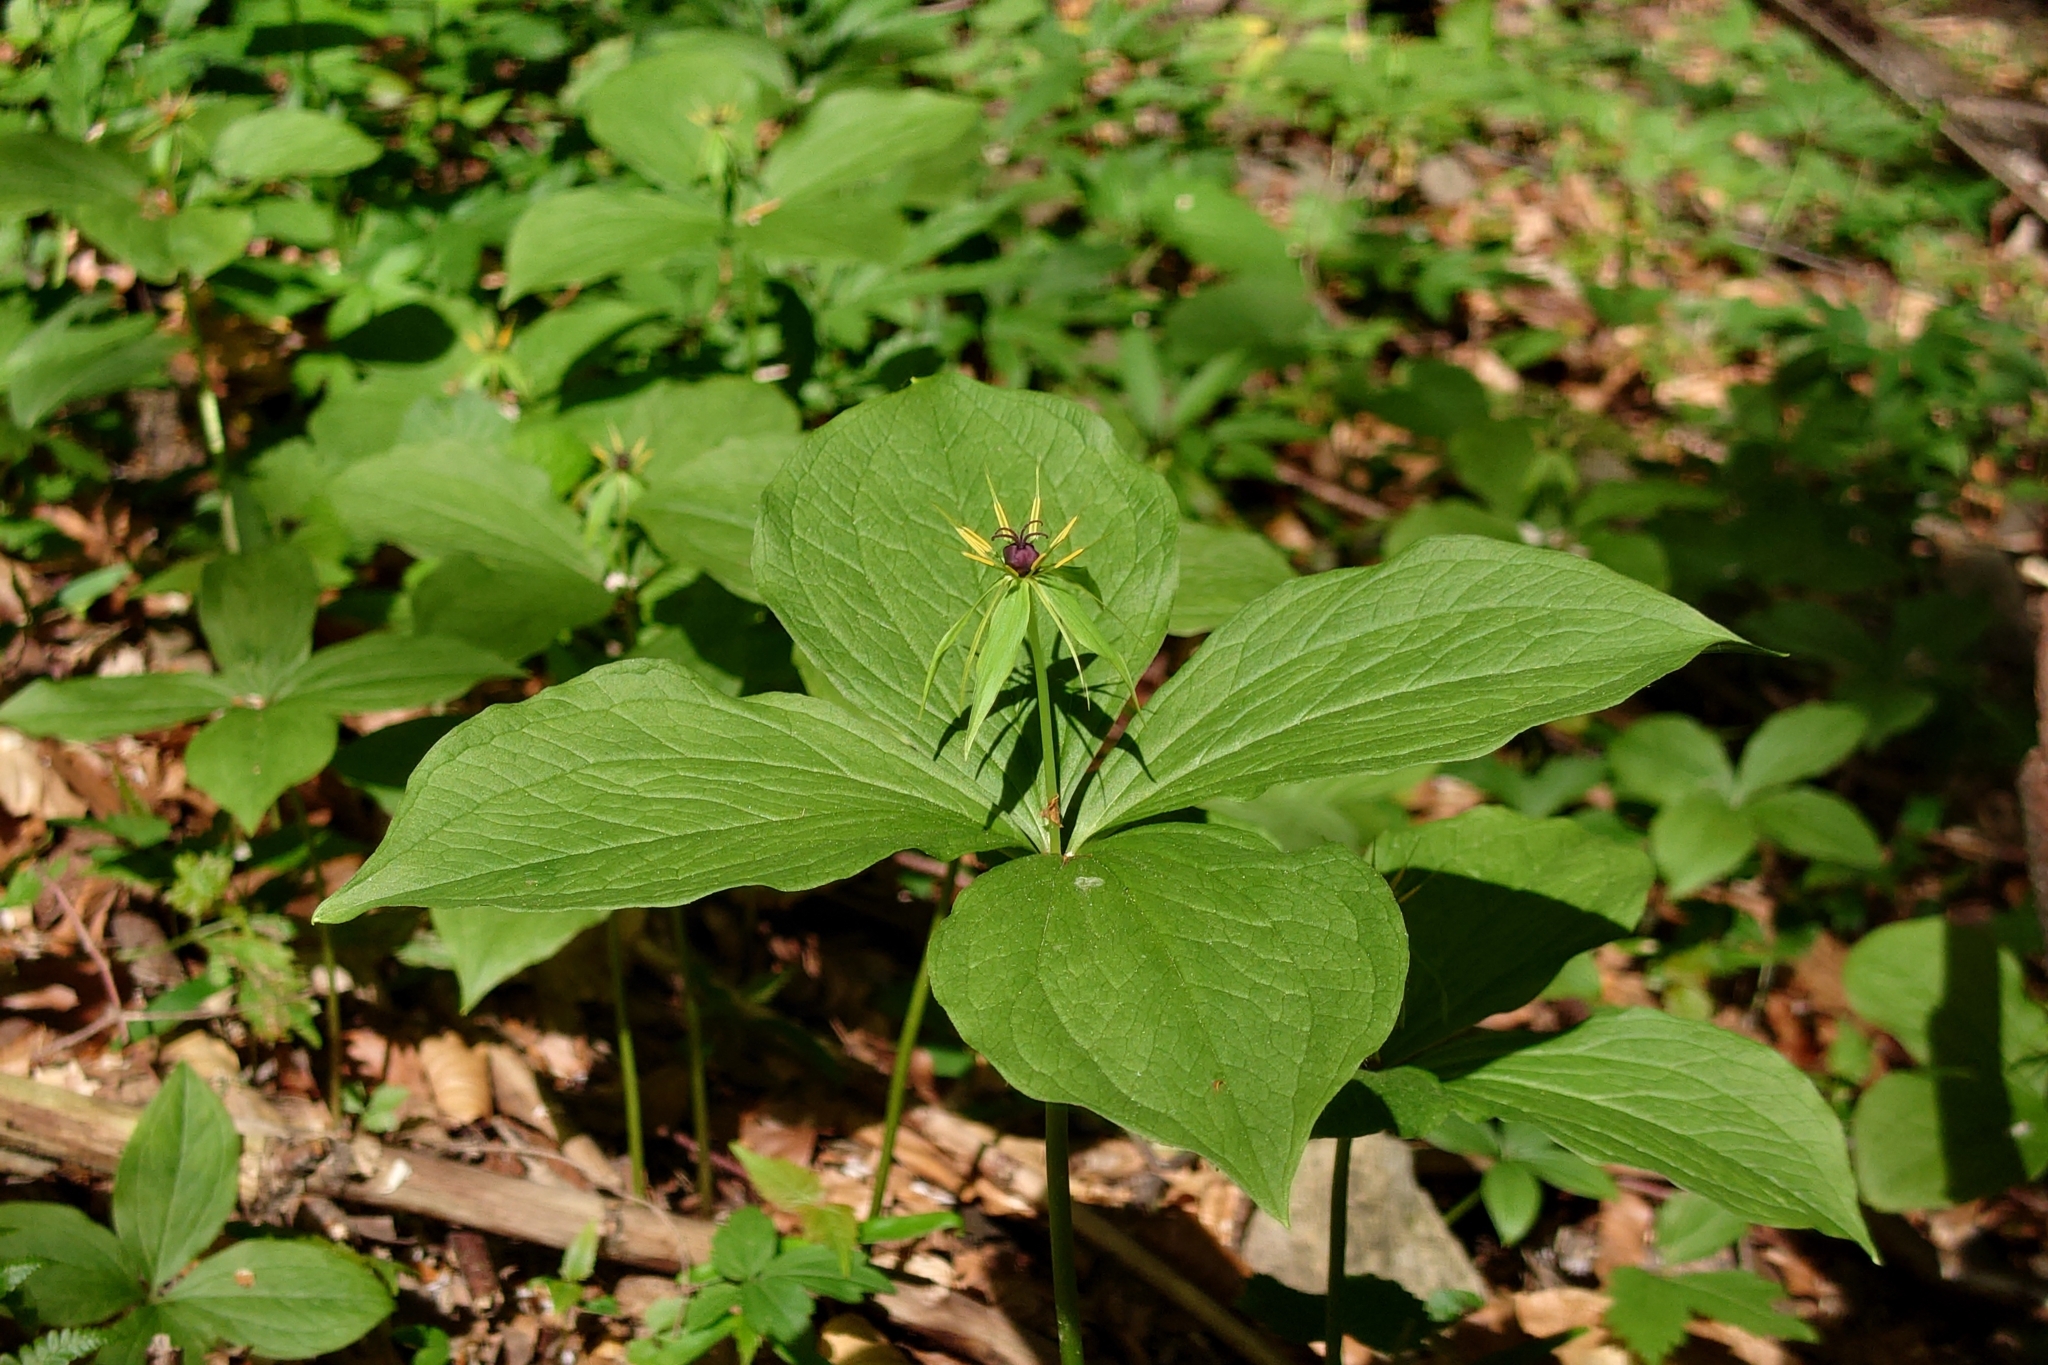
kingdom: Plantae
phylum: Tracheophyta
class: Liliopsida
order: Liliales
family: Melanthiaceae
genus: Paris
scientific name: Paris quadrifolia
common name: Herb-paris
